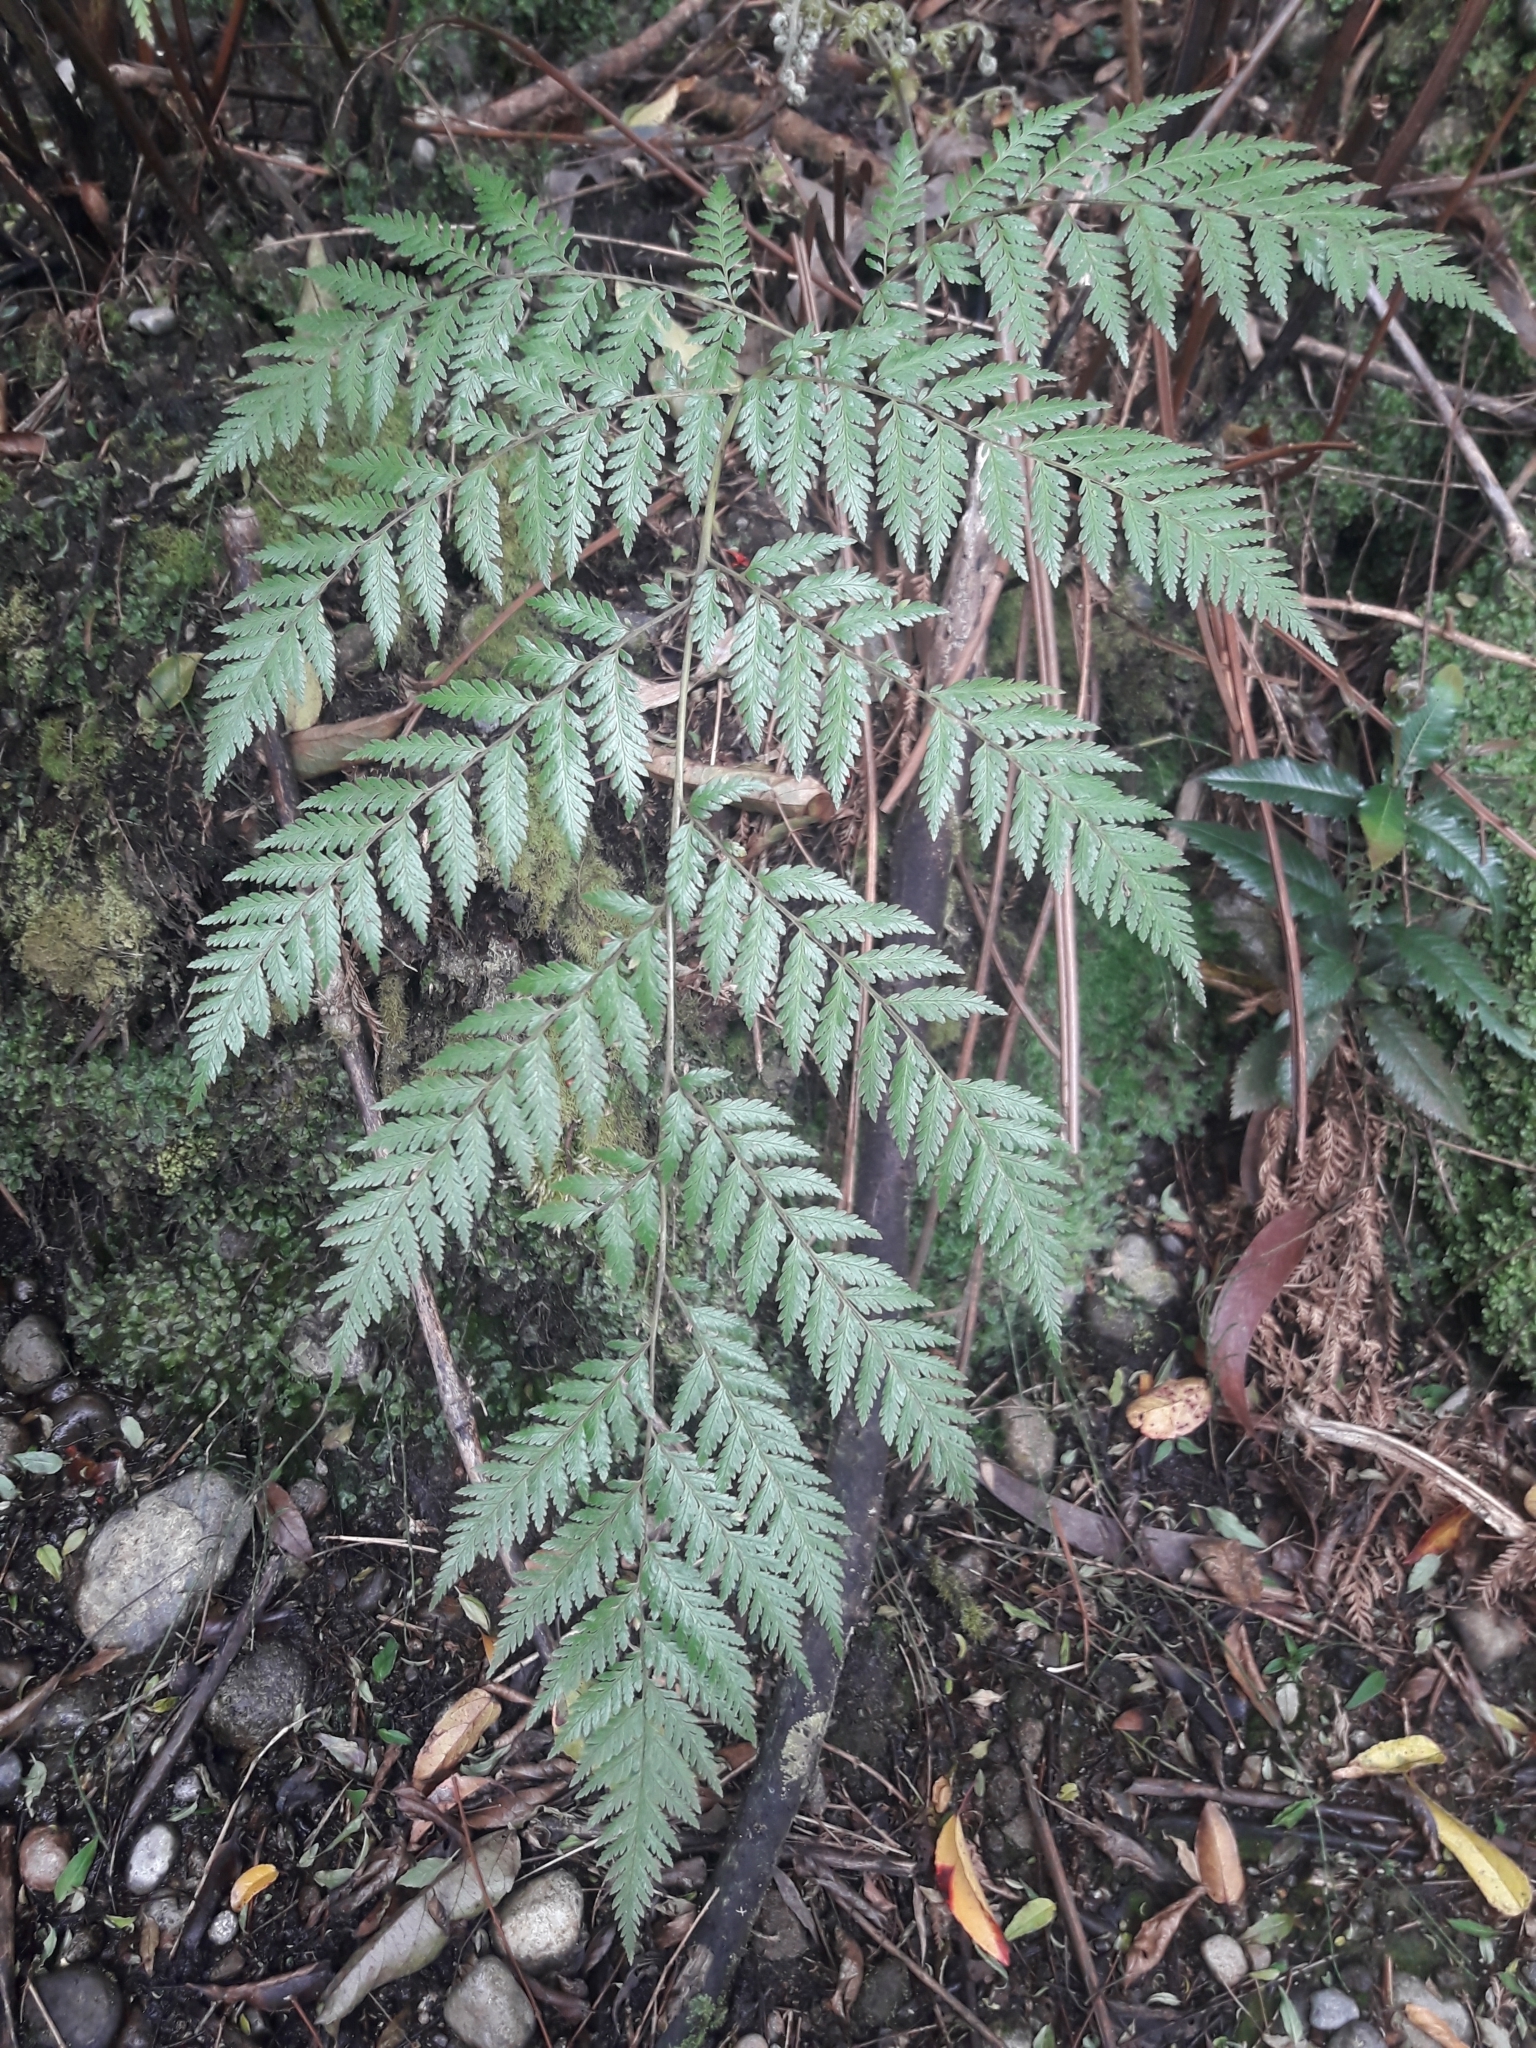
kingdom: Plantae
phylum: Tracheophyta
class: Polypodiopsida
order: Cyatheales
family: Dicksoniaceae
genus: Lophosoria
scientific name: Lophosoria quadripinnata
